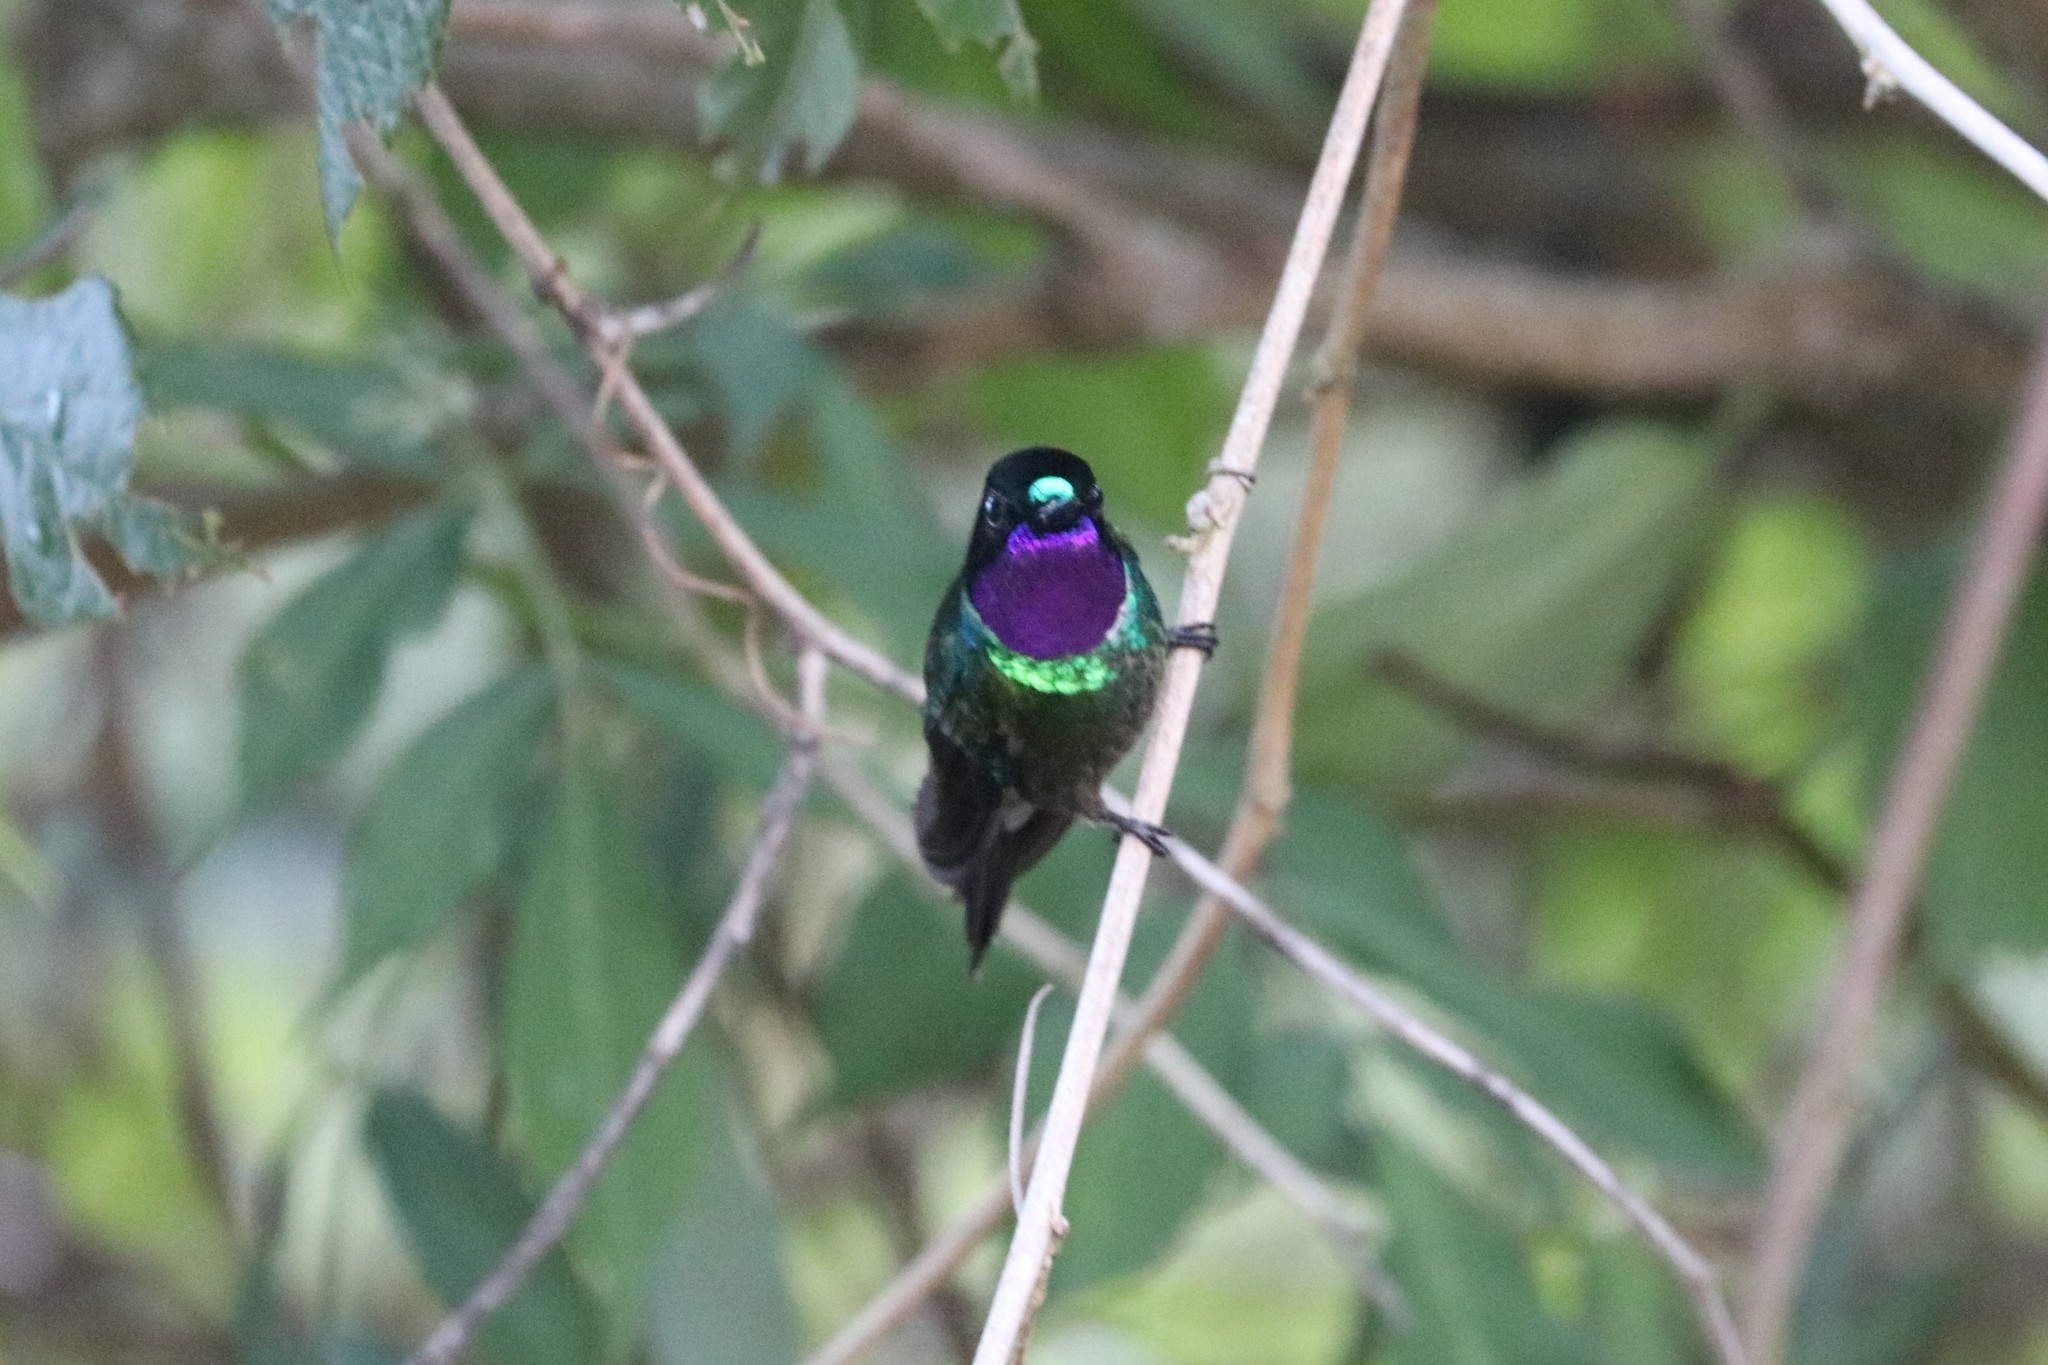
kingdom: Animalia
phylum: Chordata
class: Aves
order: Apodiformes
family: Trochilidae
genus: Heliangelus
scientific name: Heliangelus clarisse
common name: Longuemare's sunangel
